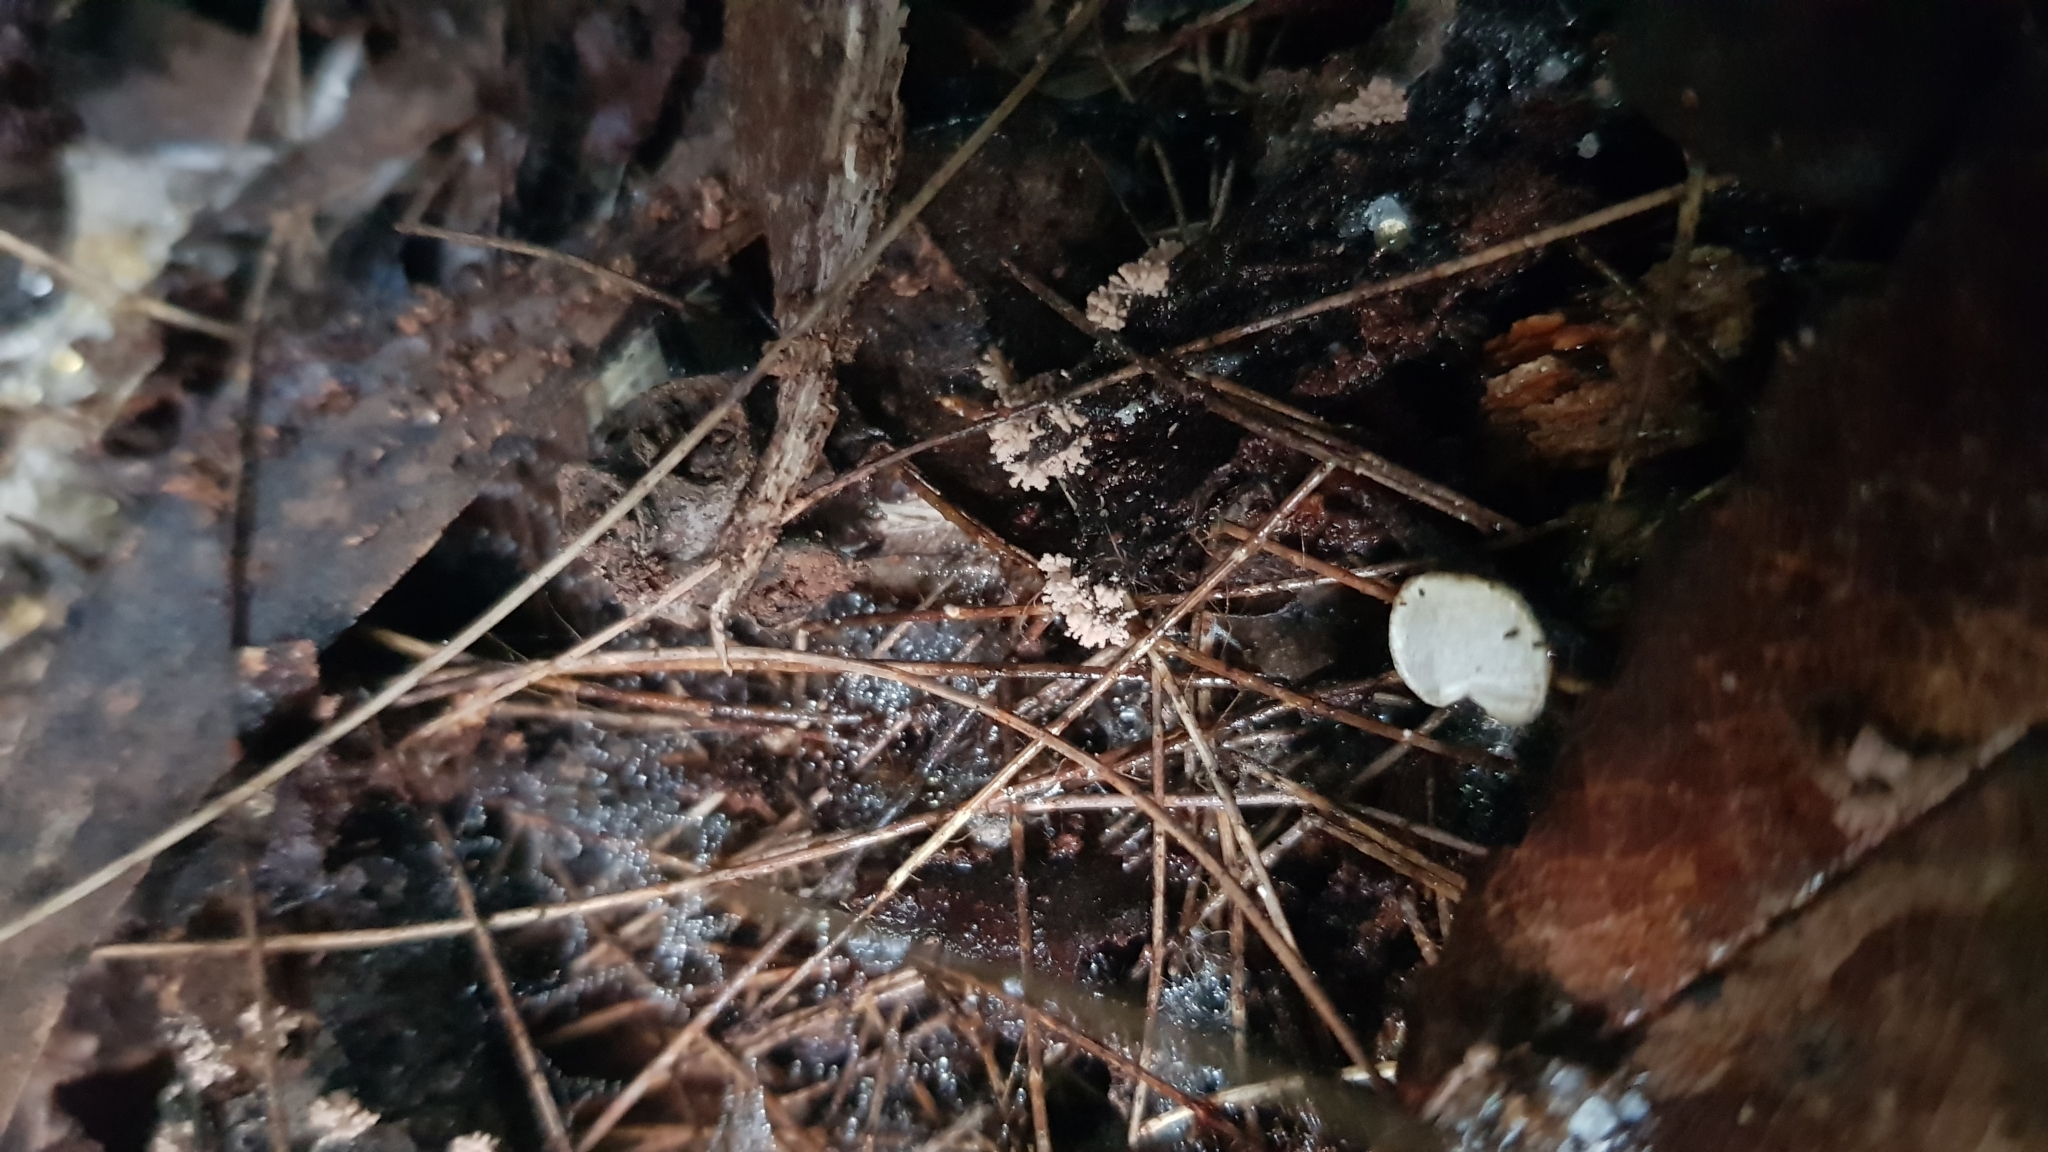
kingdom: Fungi
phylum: Ascomycota
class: Pezizomycetes
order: Pezizales
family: Pezizaceae
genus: Chromelosporiopsis
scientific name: Chromelosporiopsis carnea
